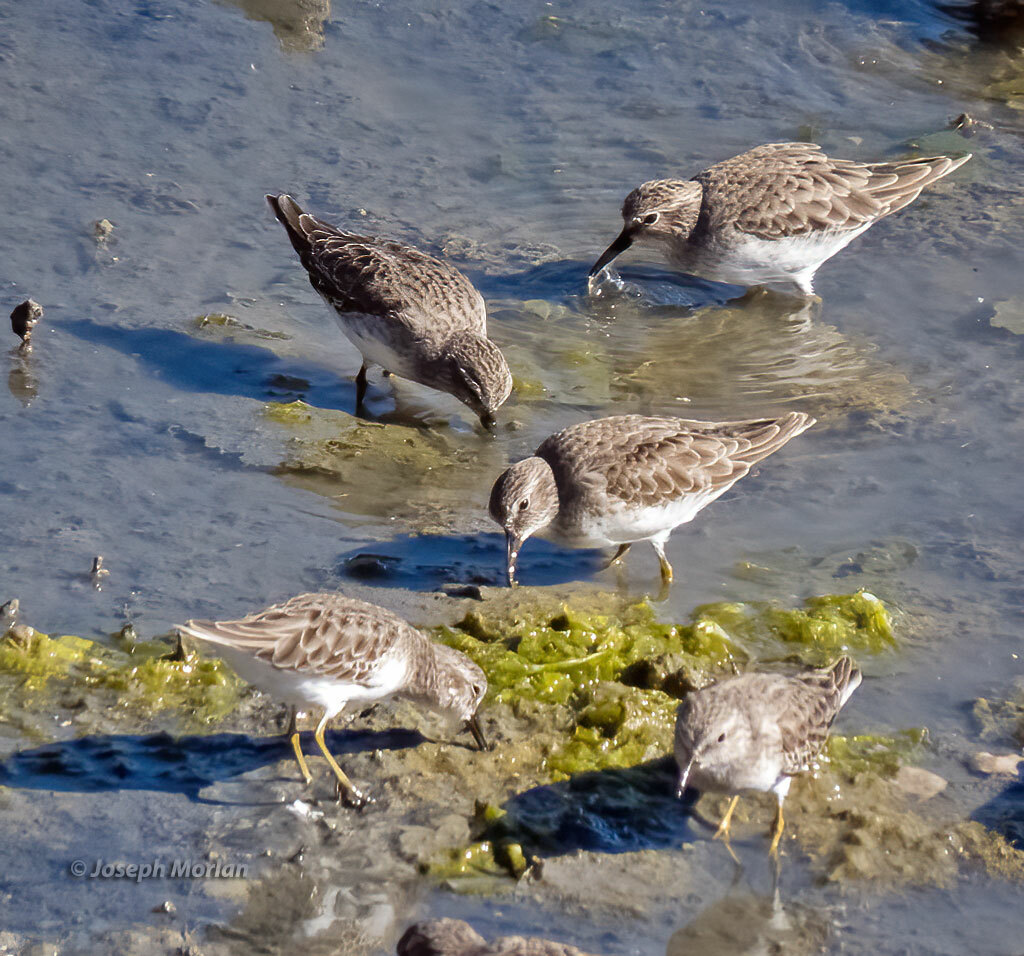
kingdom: Animalia
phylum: Chordata
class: Aves
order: Charadriiformes
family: Scolopacidae
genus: Calidris
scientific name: Calidris minutilla
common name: Least sandpiper
